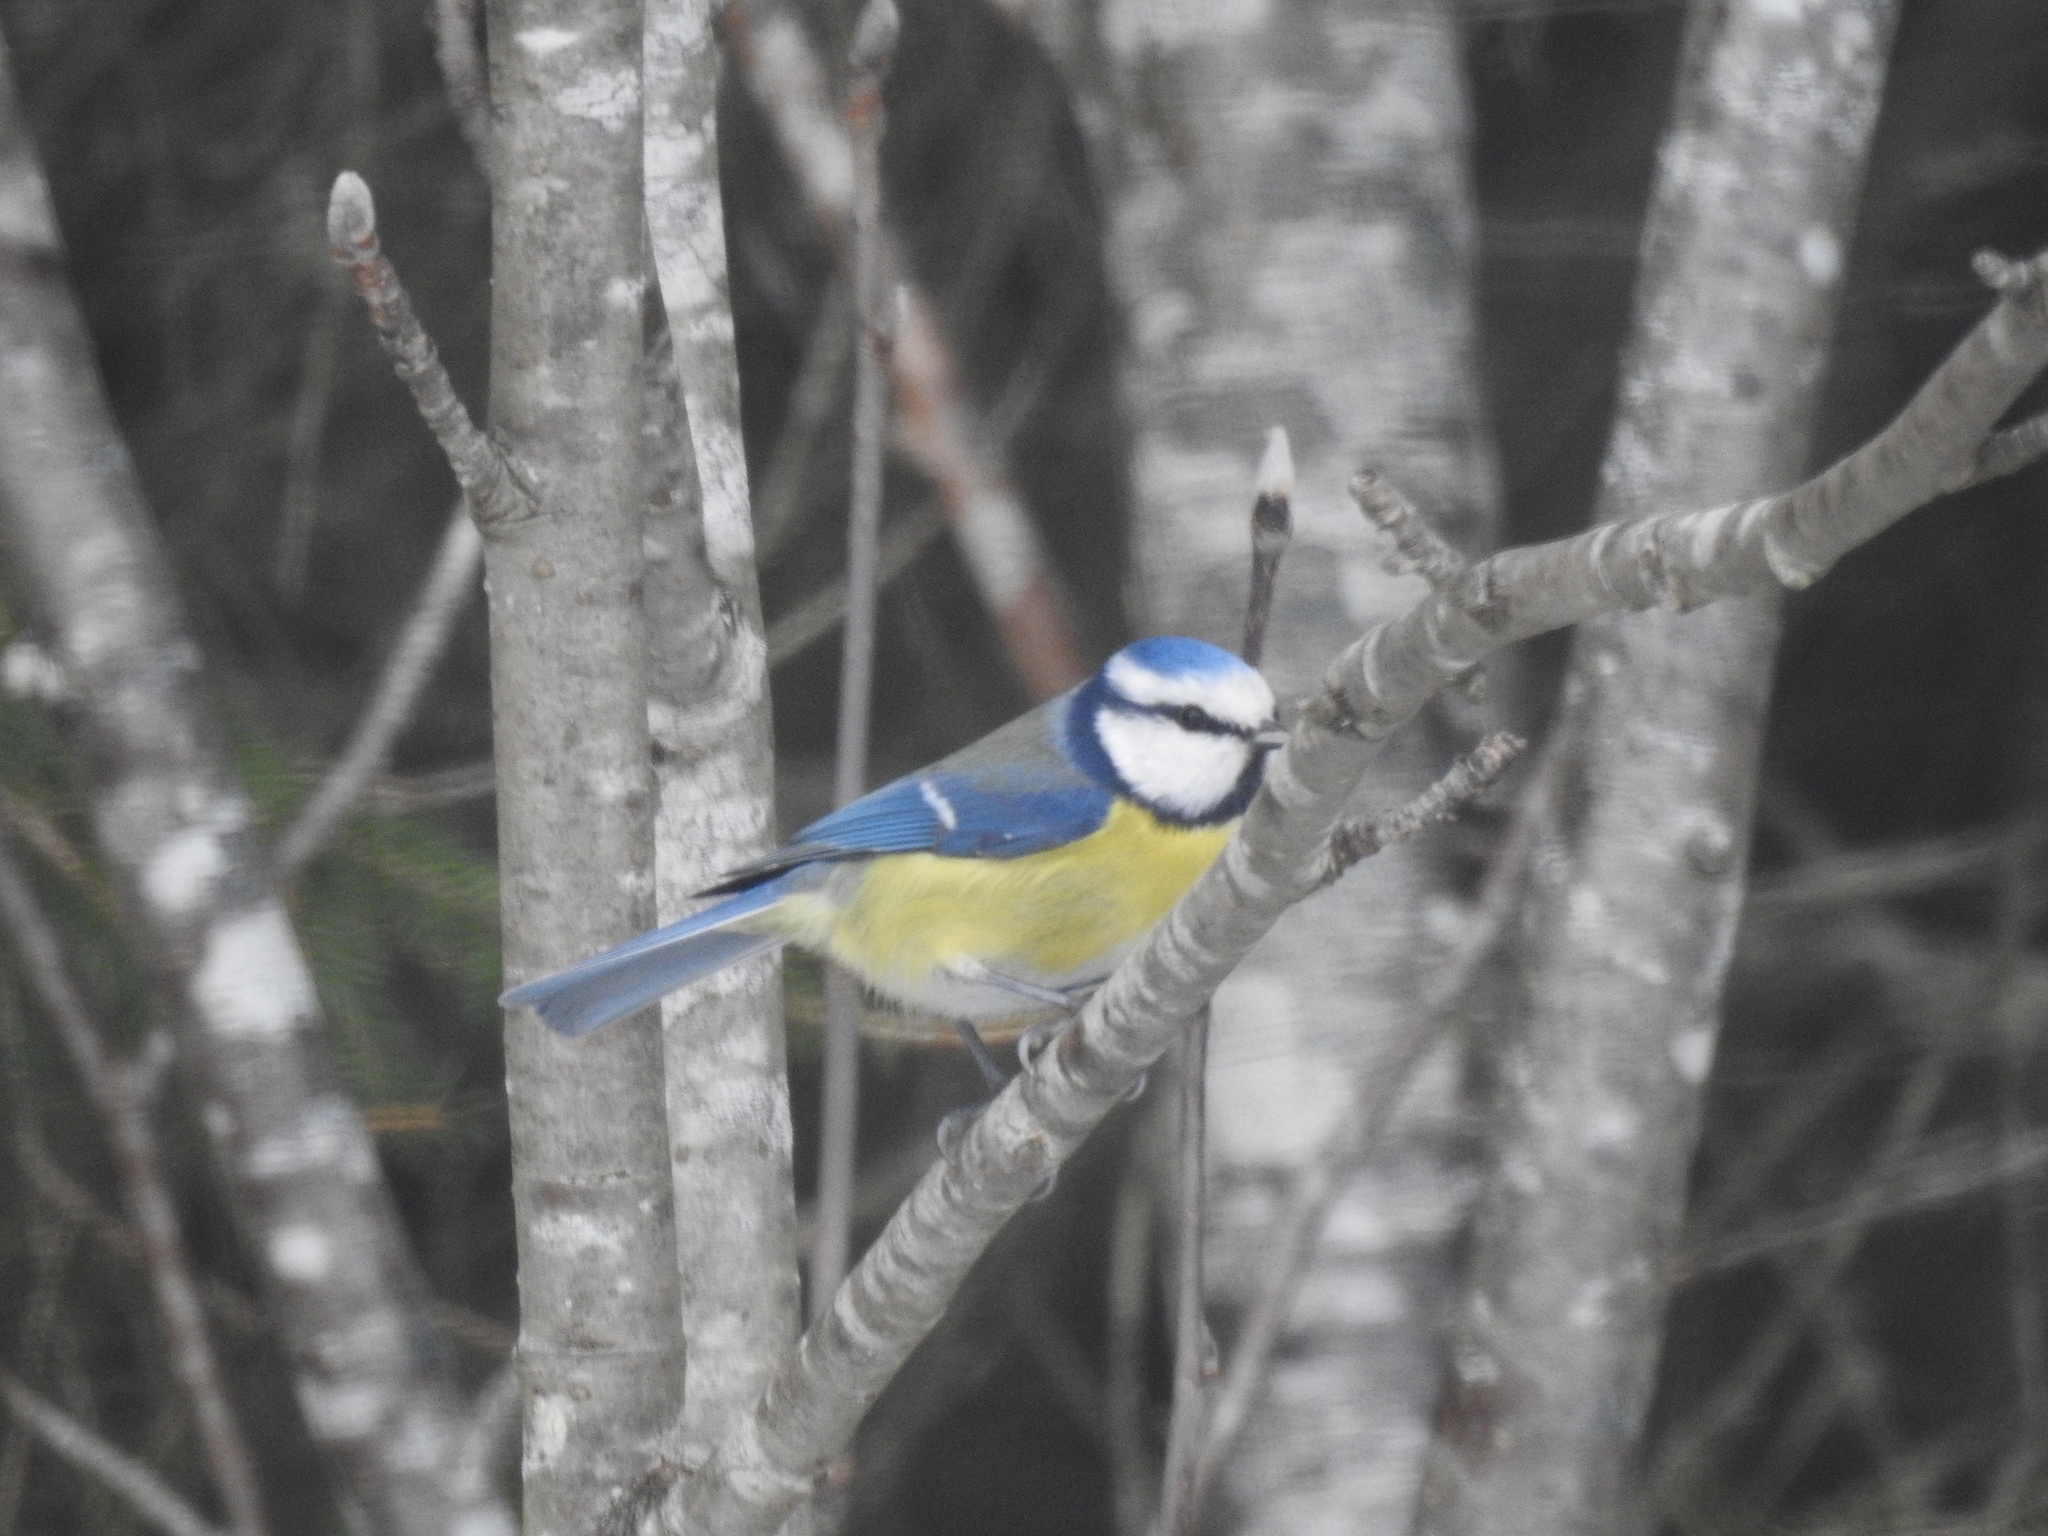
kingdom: Animalia
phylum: Chordata
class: Aves
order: Passeriformes
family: Paridae
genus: Cyanistes
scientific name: Cyanistes caeruleus
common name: Eurasian blue tit
